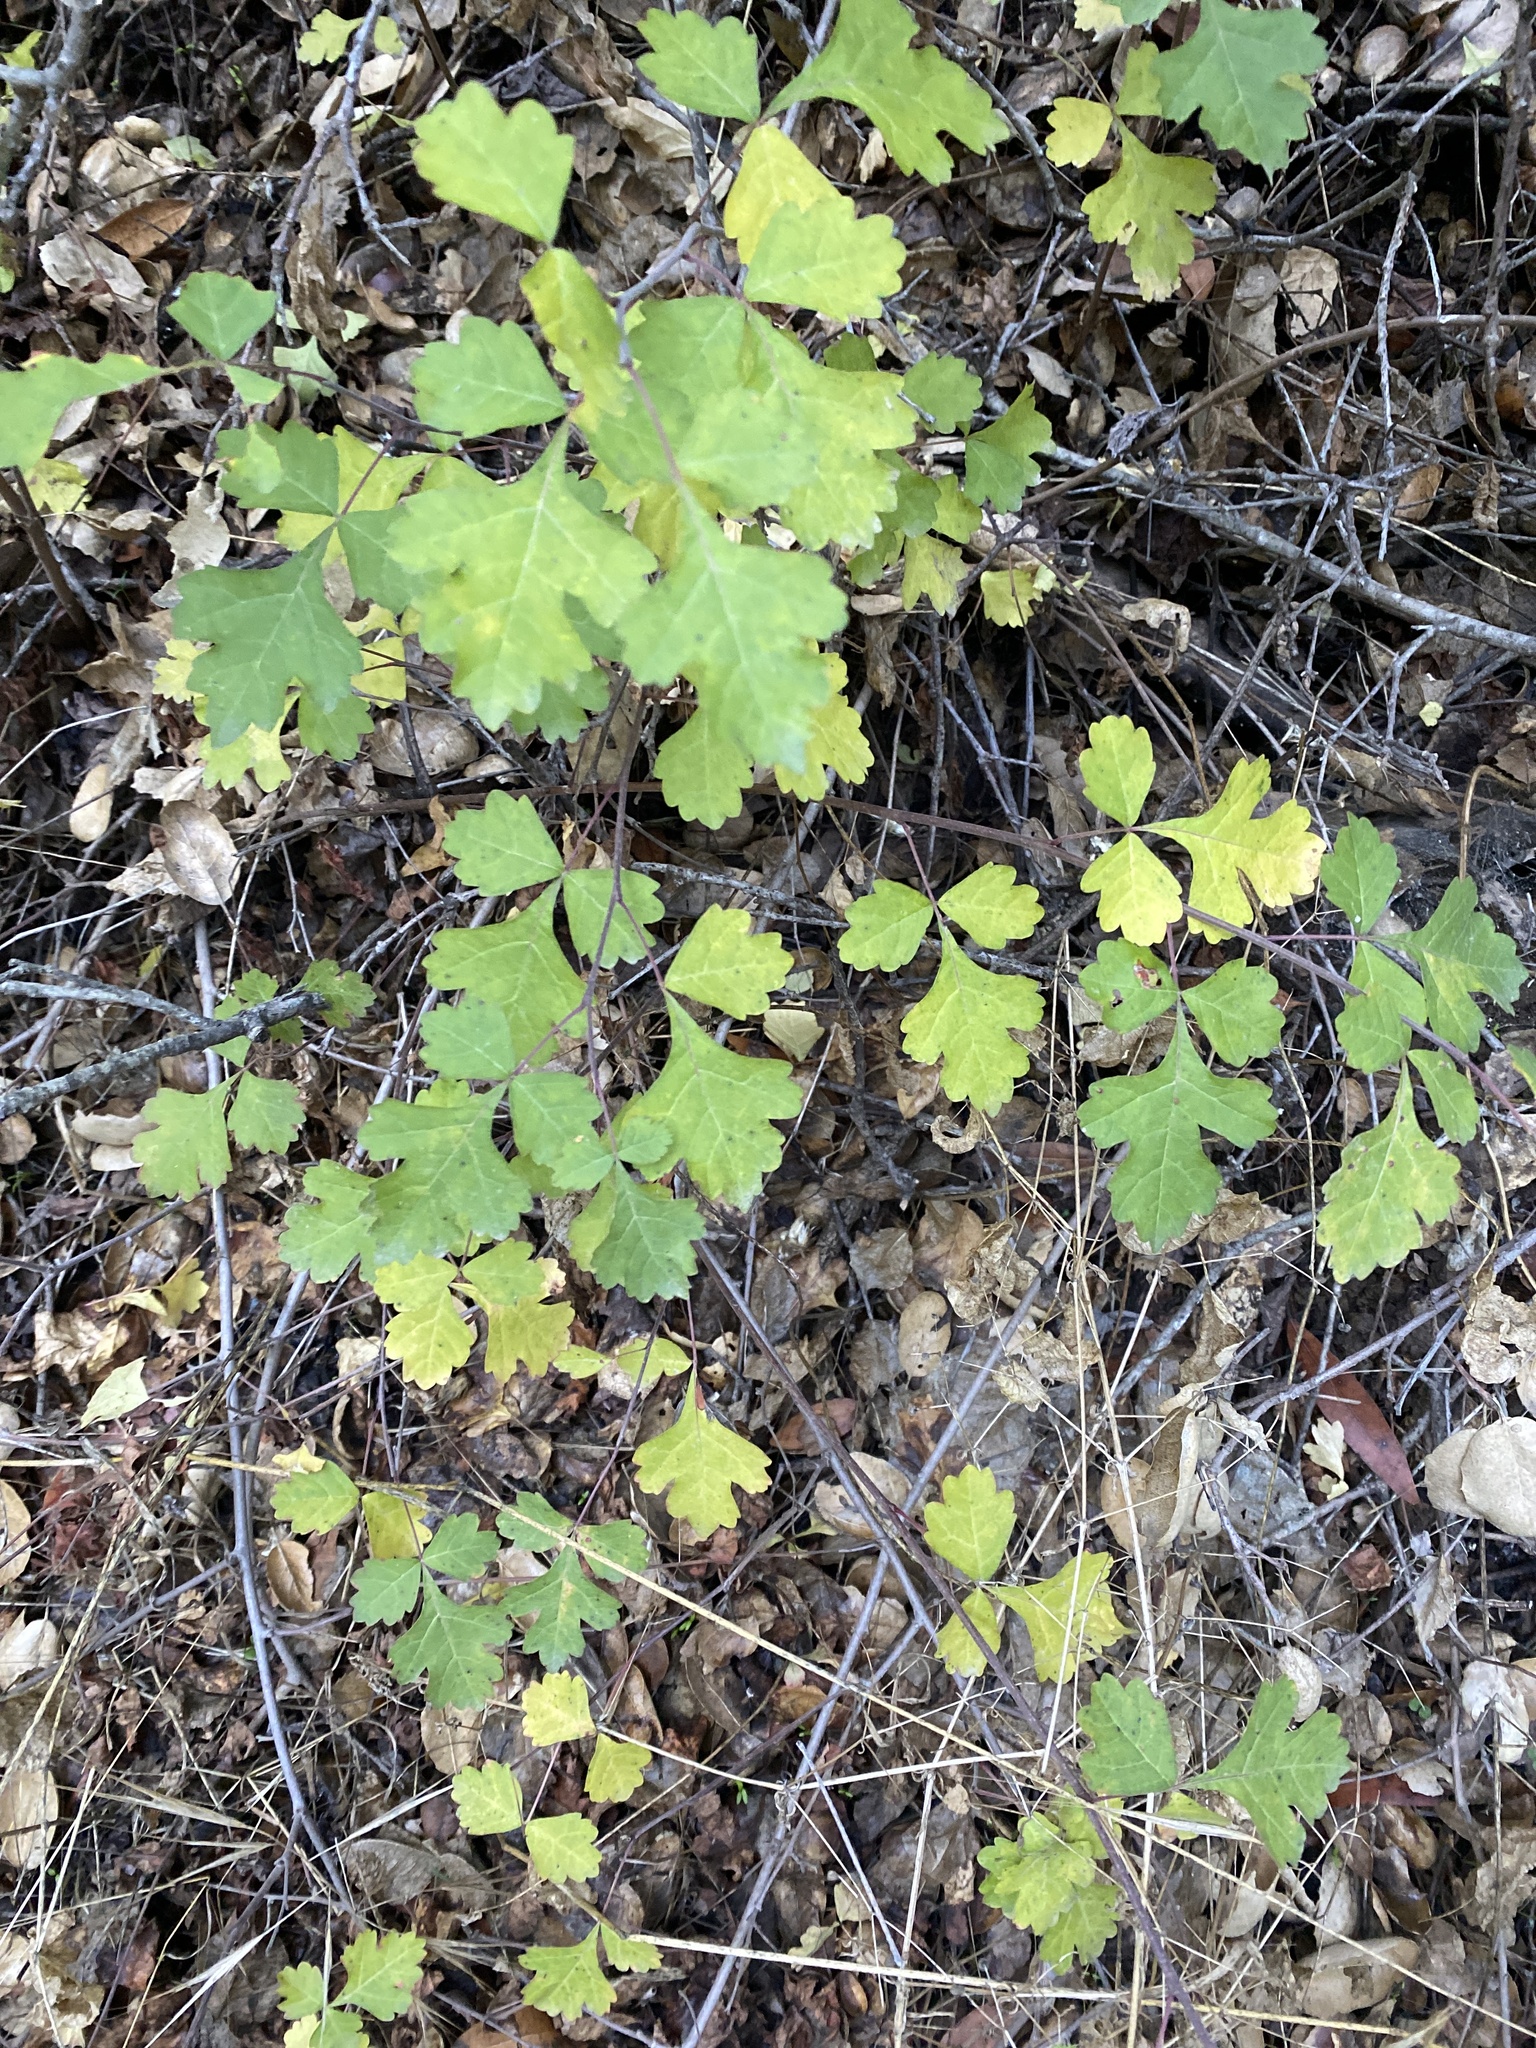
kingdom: Plantae
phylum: Tracheophyta
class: Magnoliopsida
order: Sapindales
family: Anacardiaceae
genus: Rhus
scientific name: Rhus aromatica
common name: Aromatic sumac
